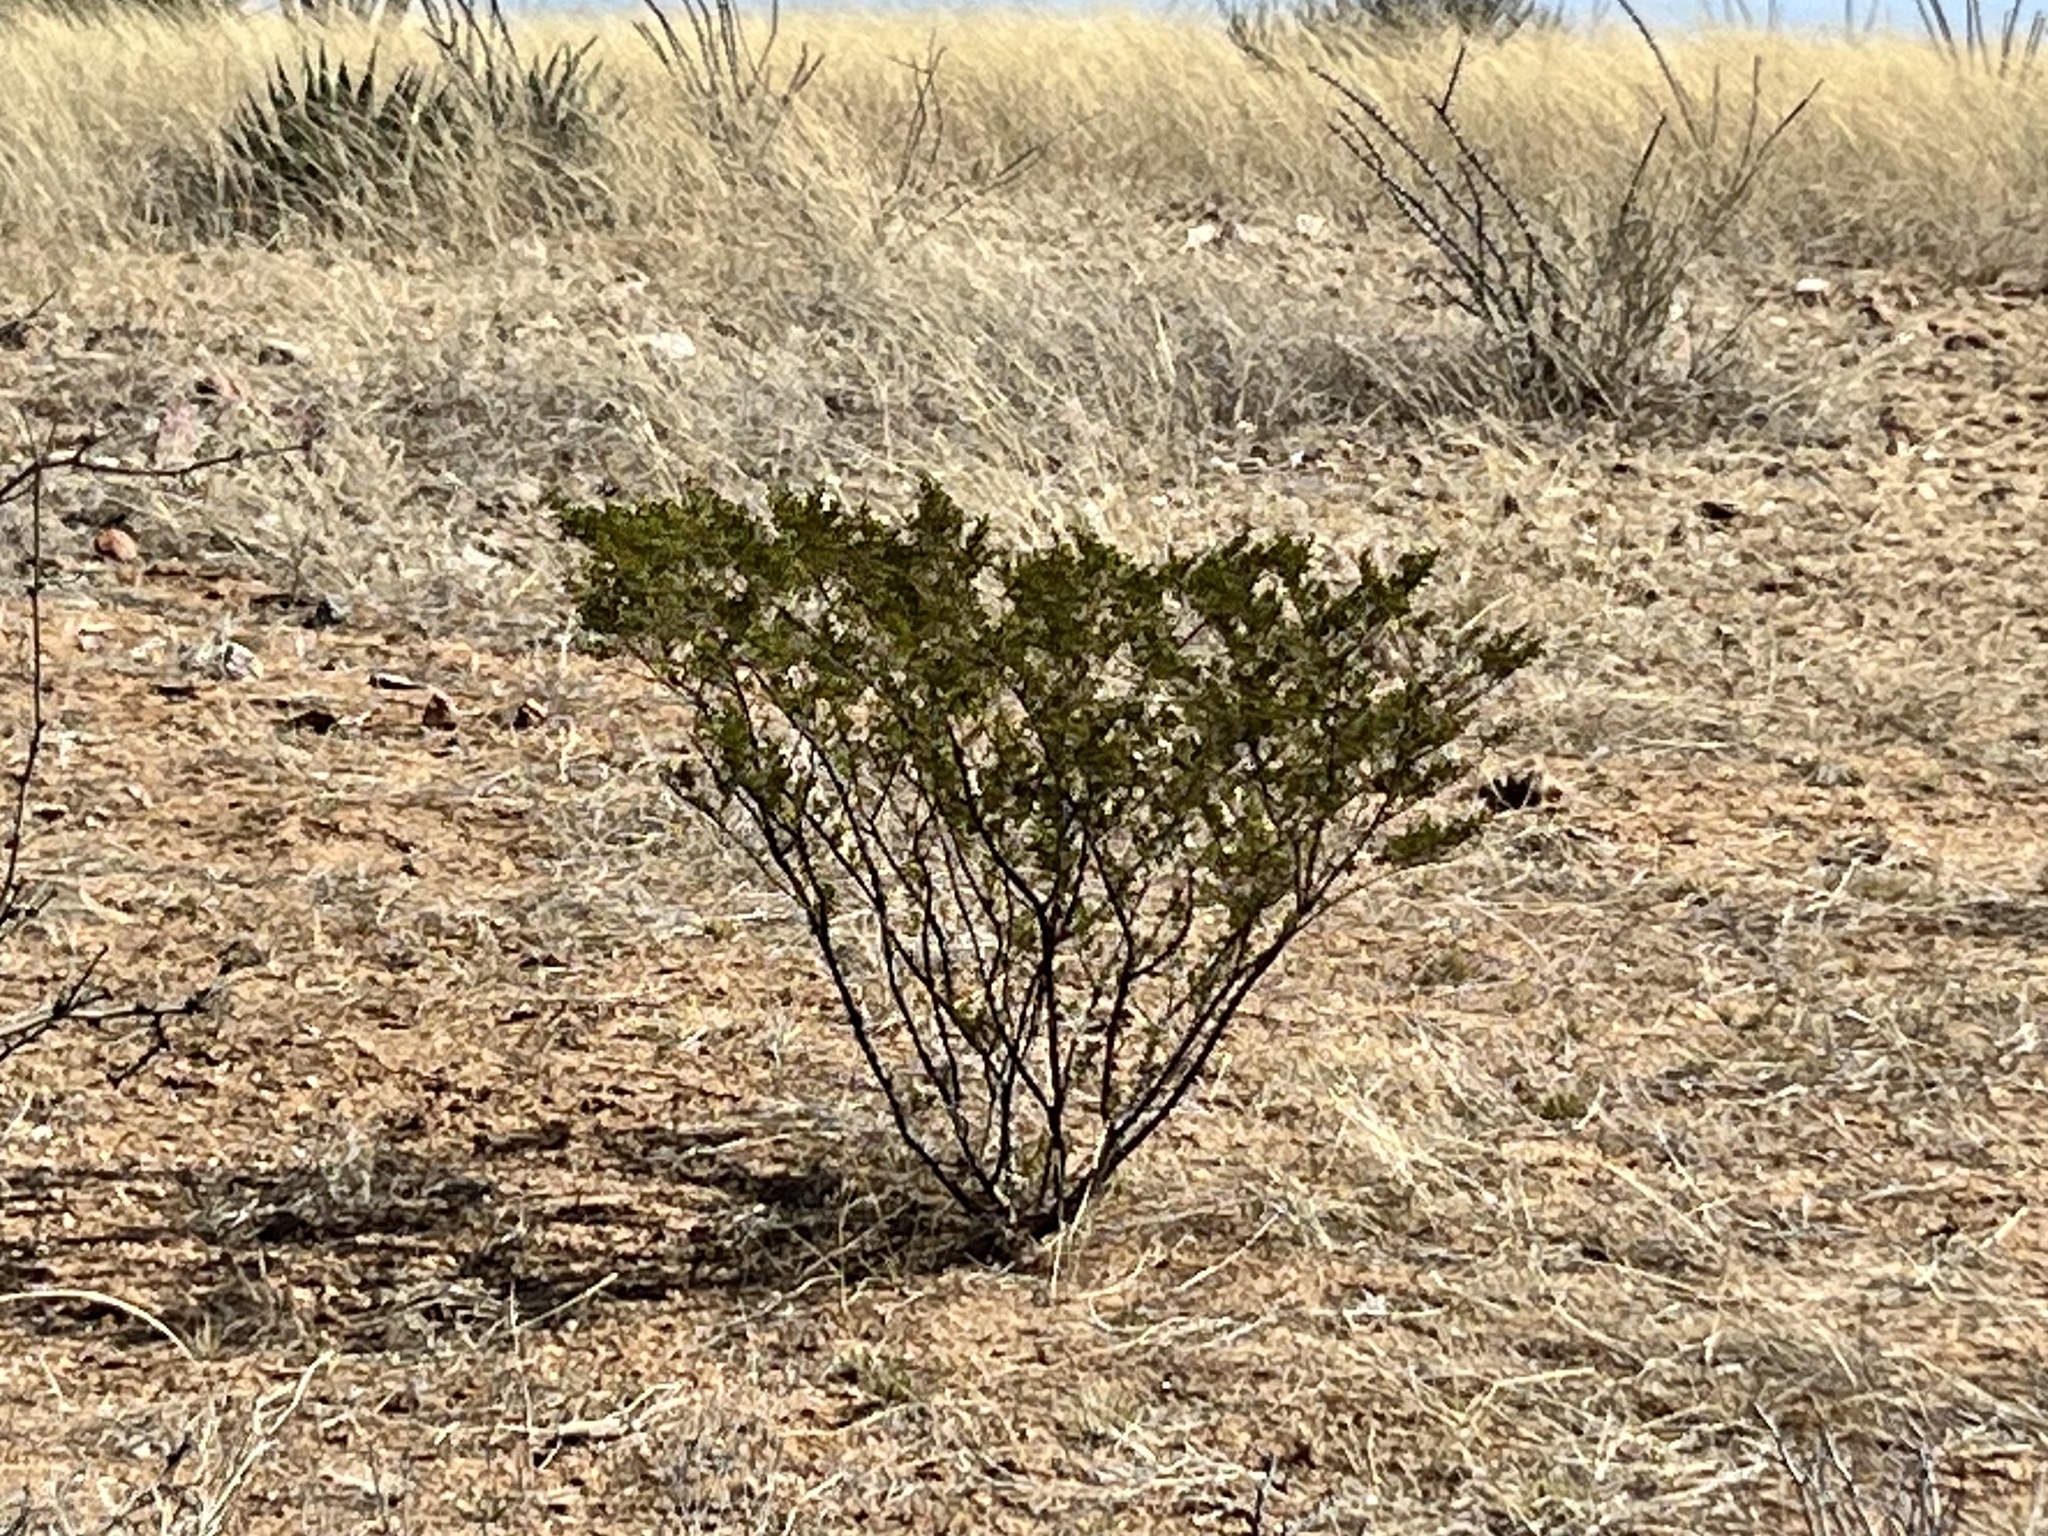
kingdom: Plantae
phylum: Tracheophyta
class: Magnoliopsida
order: Zygophyllales
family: Zygophyllaceae
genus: Larrea
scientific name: Larrea tridentata
